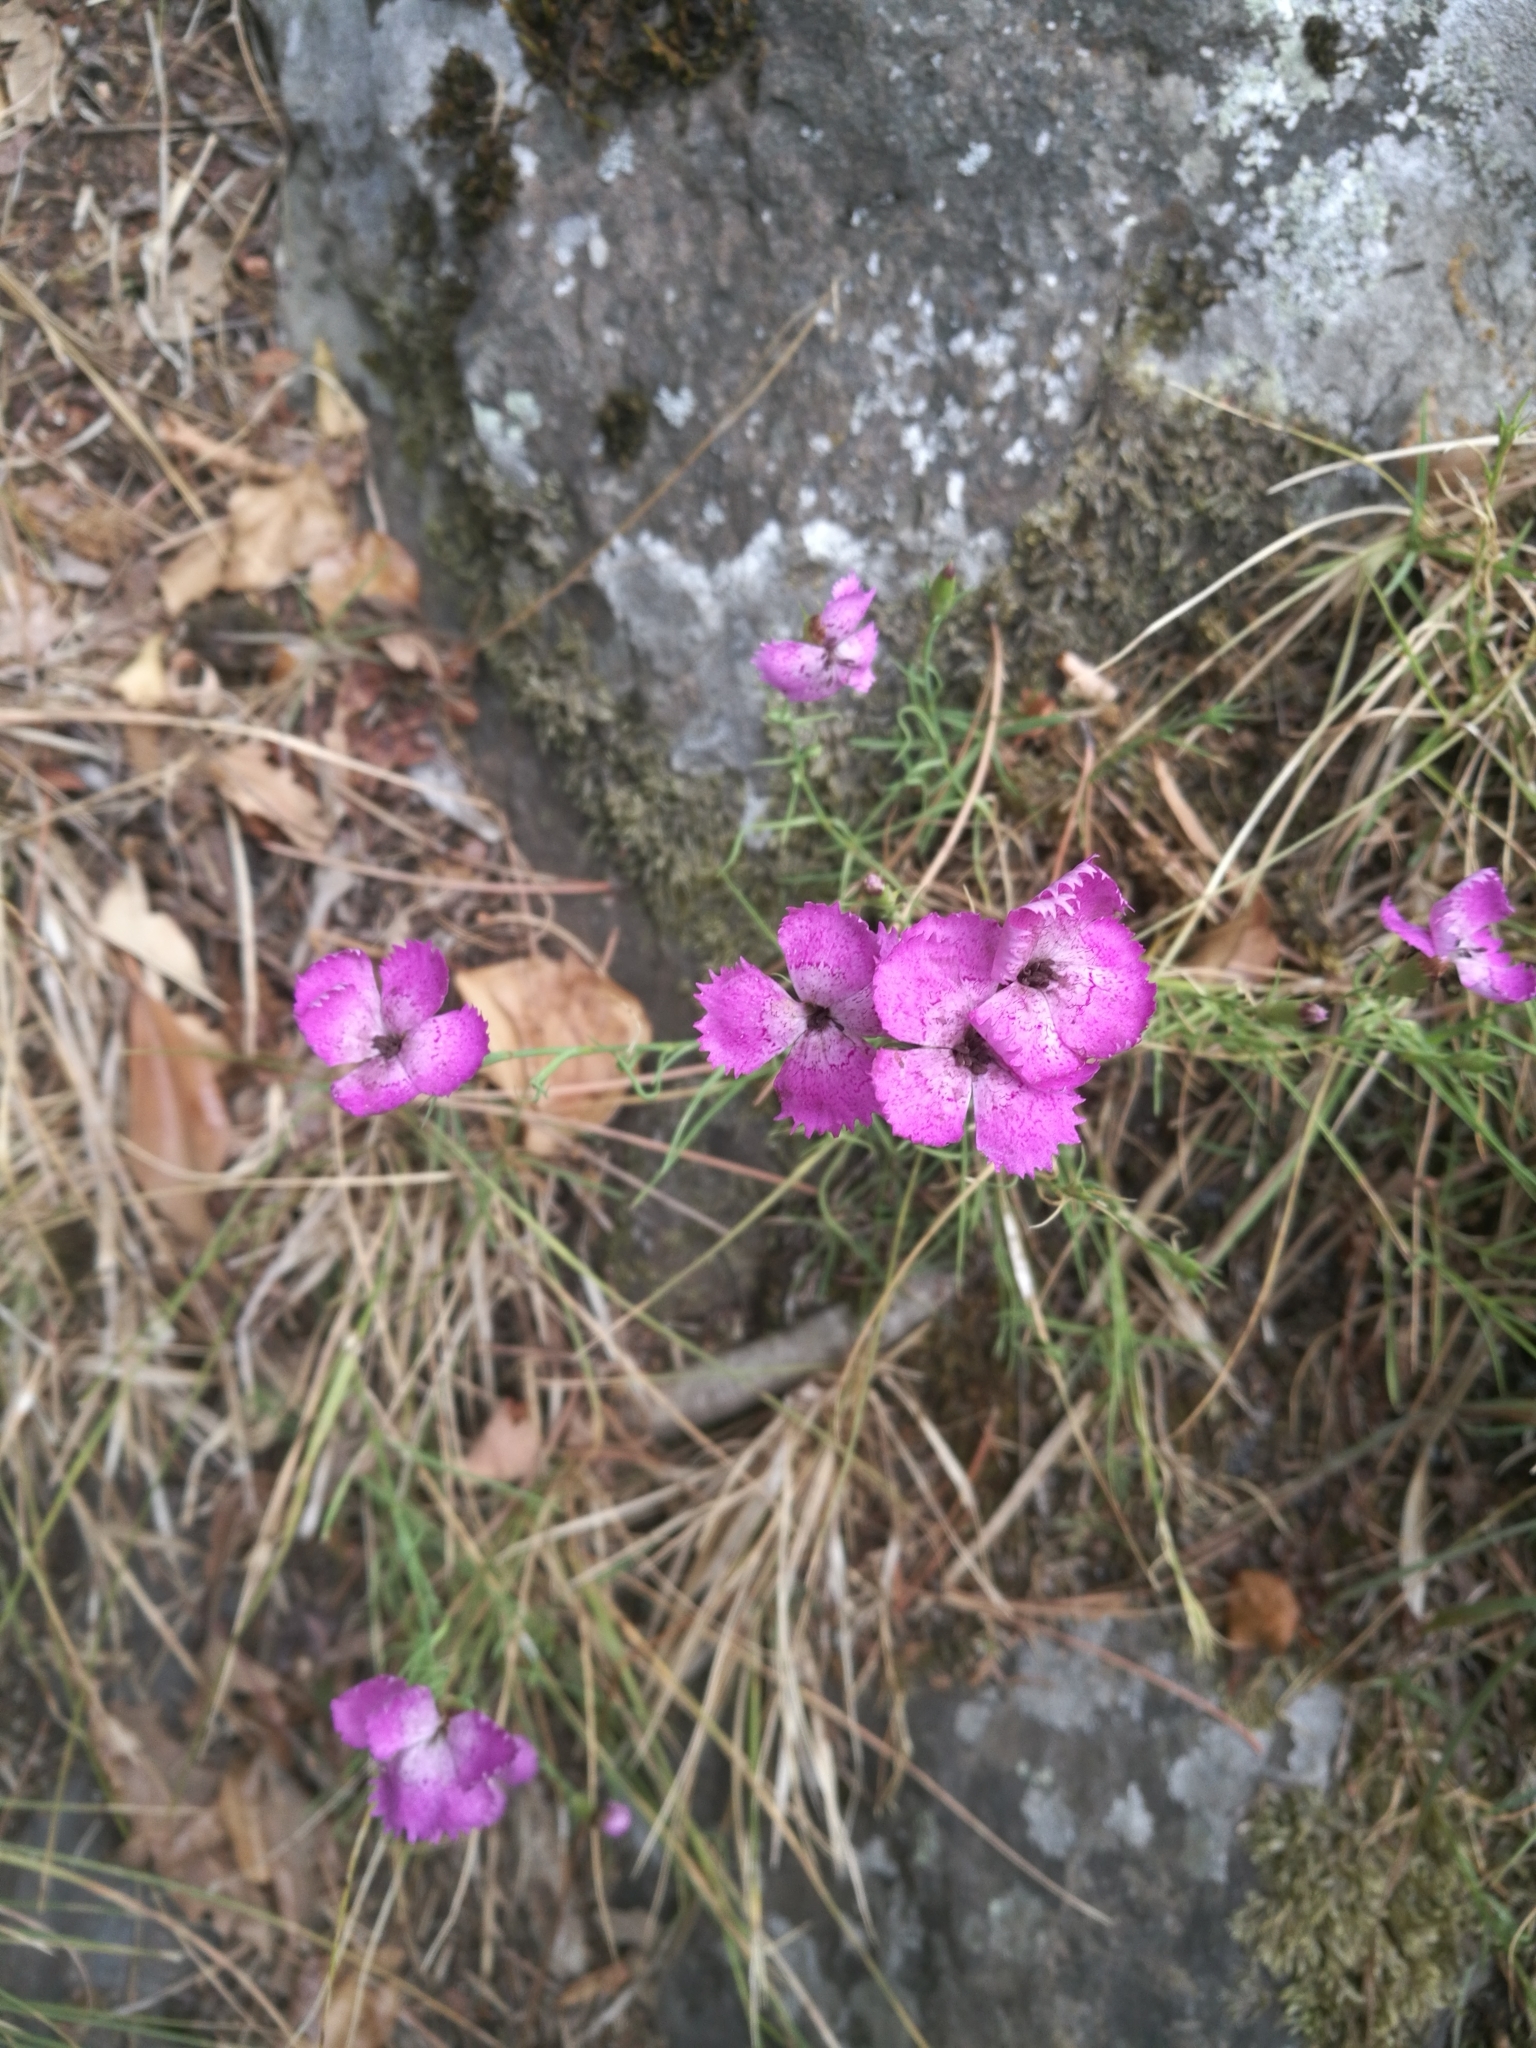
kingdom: Plantae
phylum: Tracheophyta
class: Magnoliopsida
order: Caryophyllales
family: Caryophyllaceae
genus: Dianthus
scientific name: Dianthus seguieri
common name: Ragged pink
